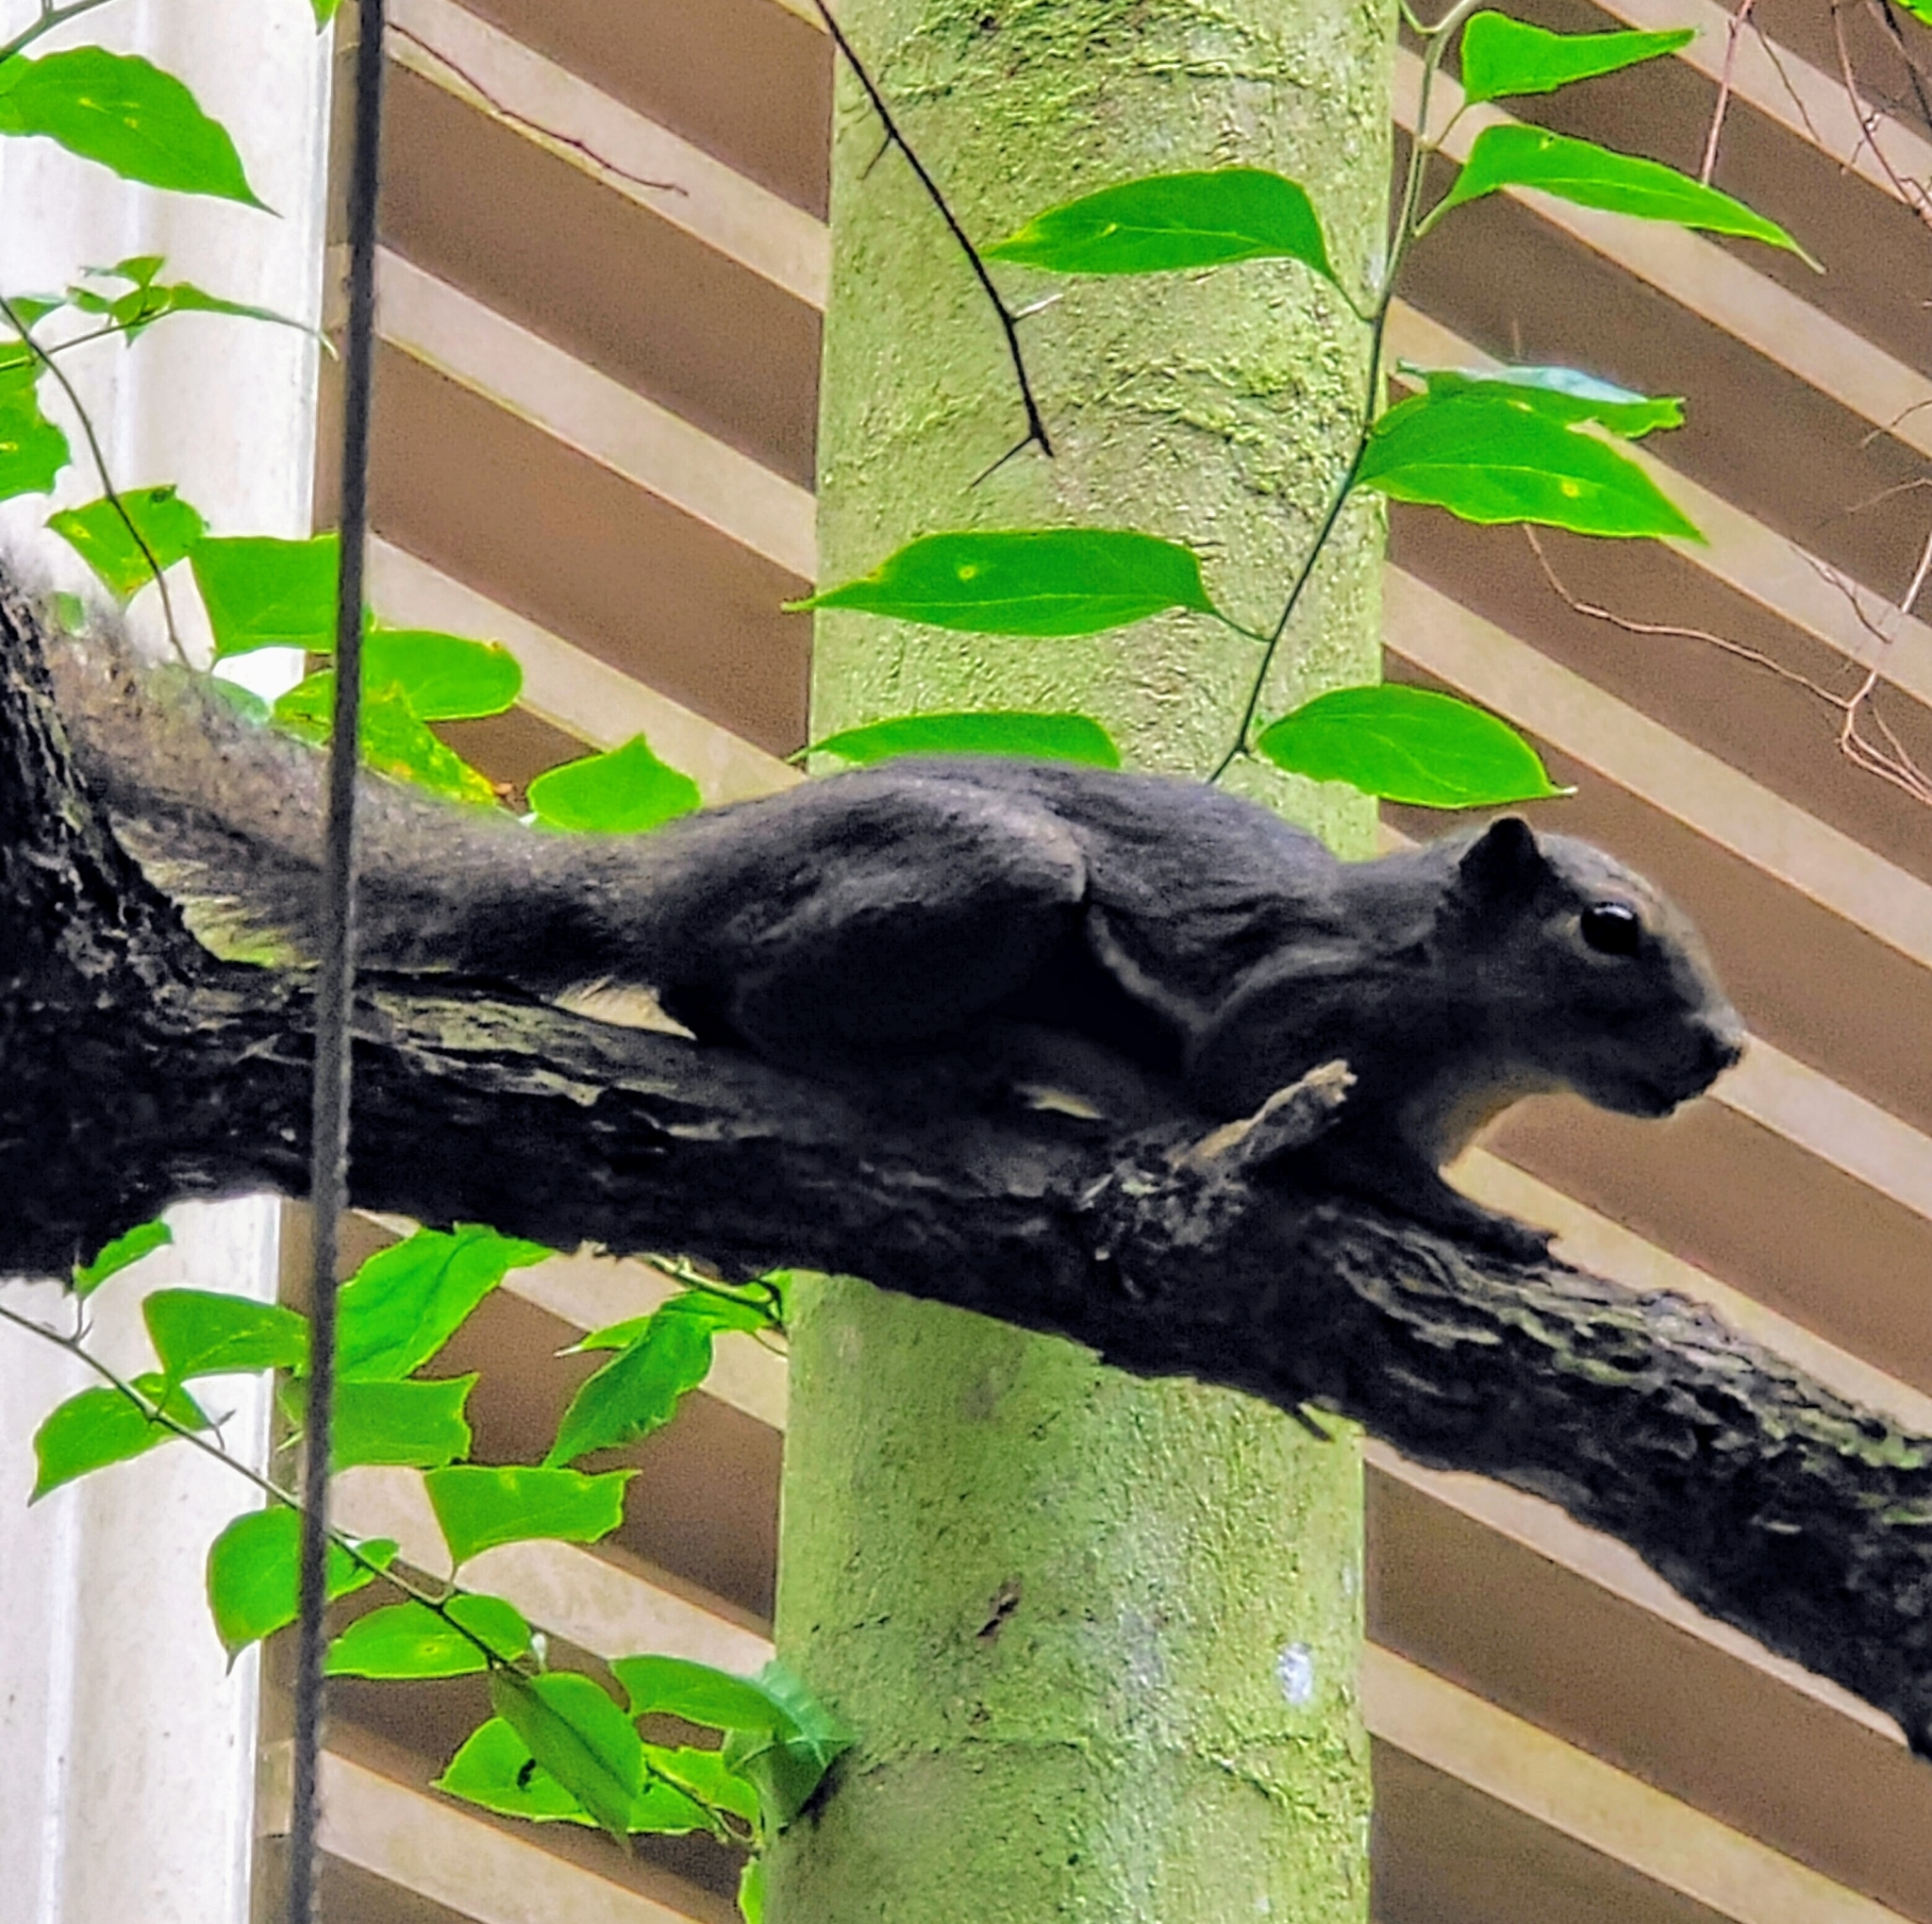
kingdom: Animalia
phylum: Chordata
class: Mammalia
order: Rodentia
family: Sciuridae
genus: Callosciurus
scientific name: Callosciurus notatus
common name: Plantain squirrel
